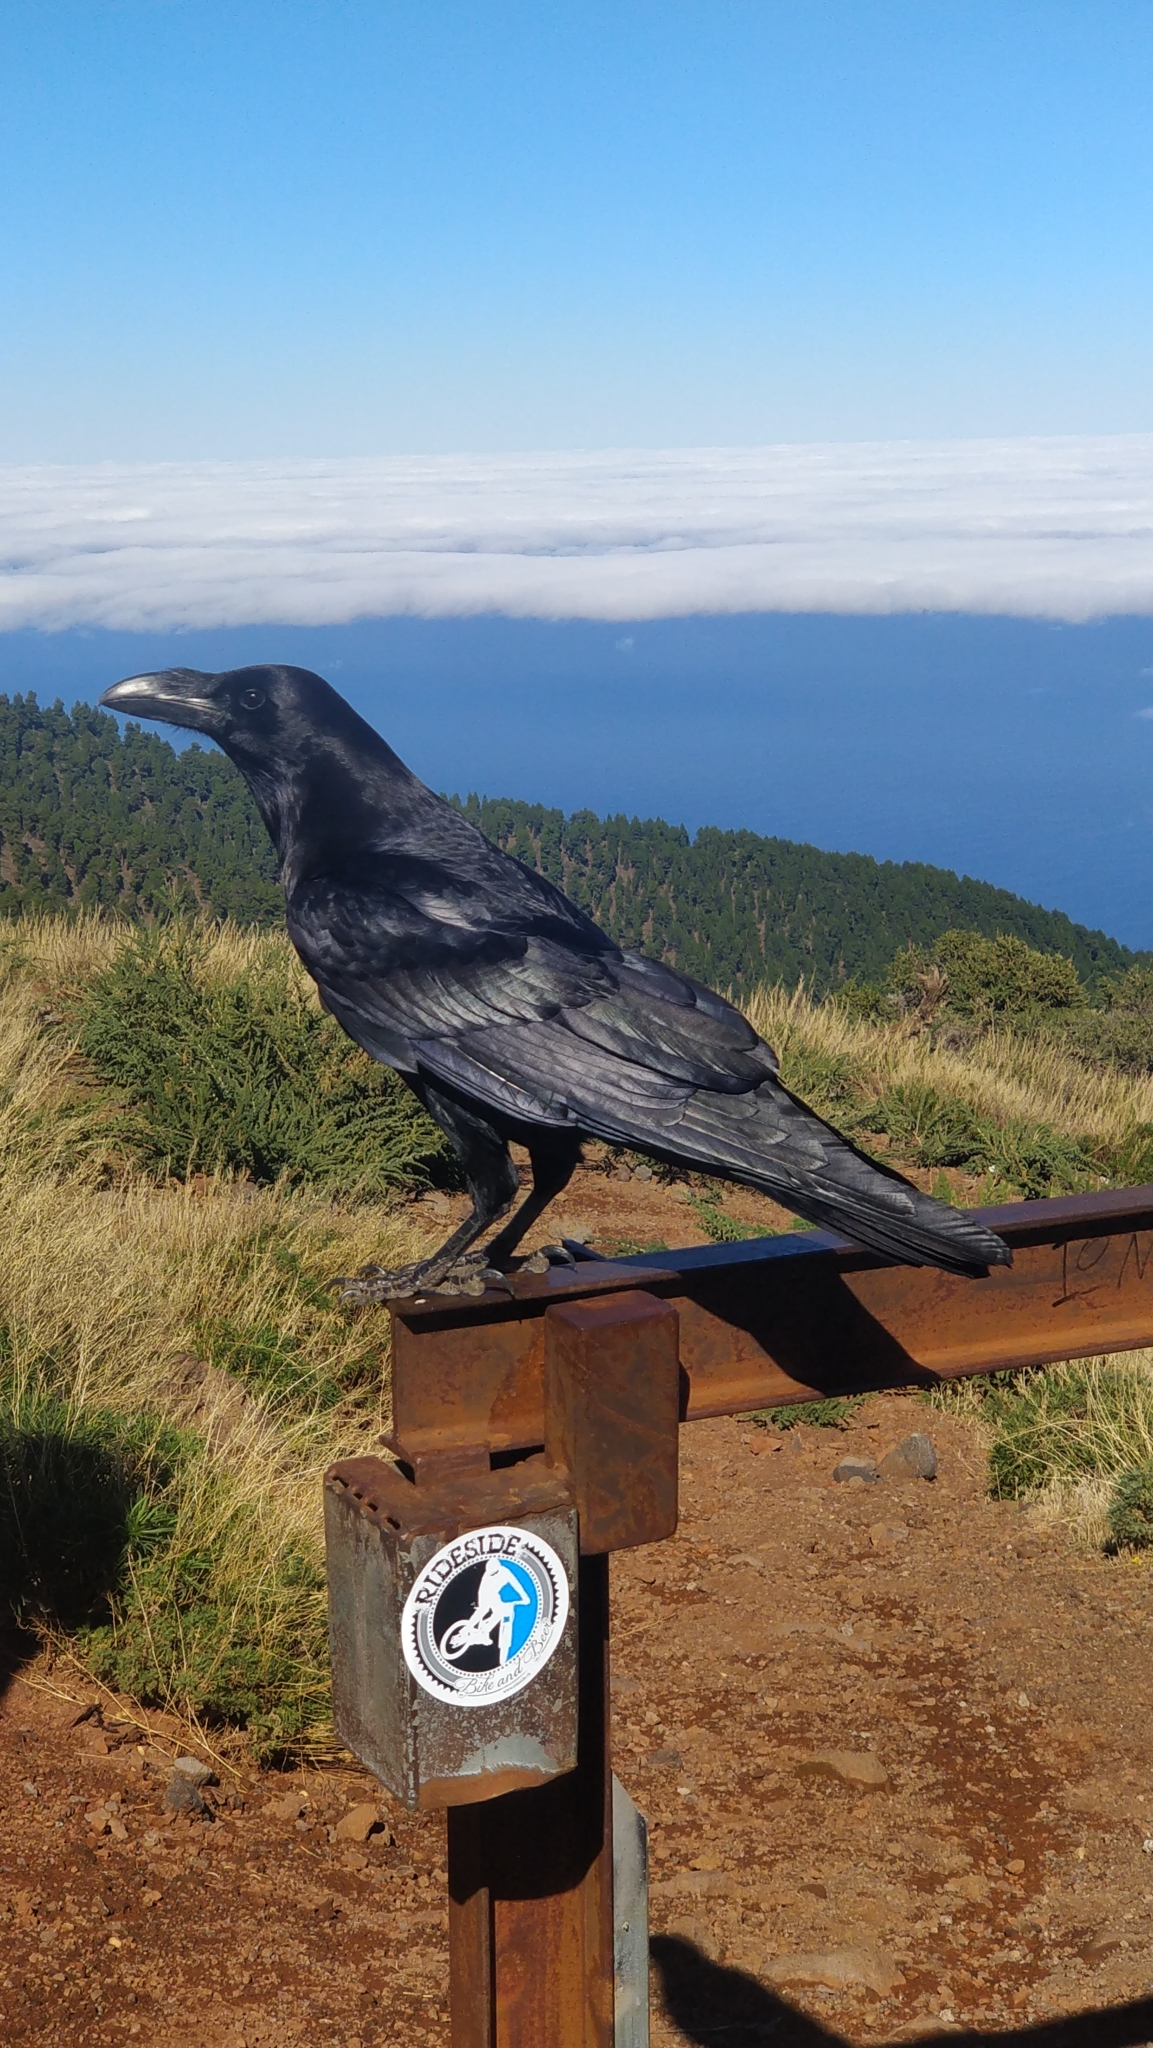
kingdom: Animalia
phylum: Chordata
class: Aves
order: Passeriformes
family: Corvidae
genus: Corvus
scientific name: Corvus corax
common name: Common raven
